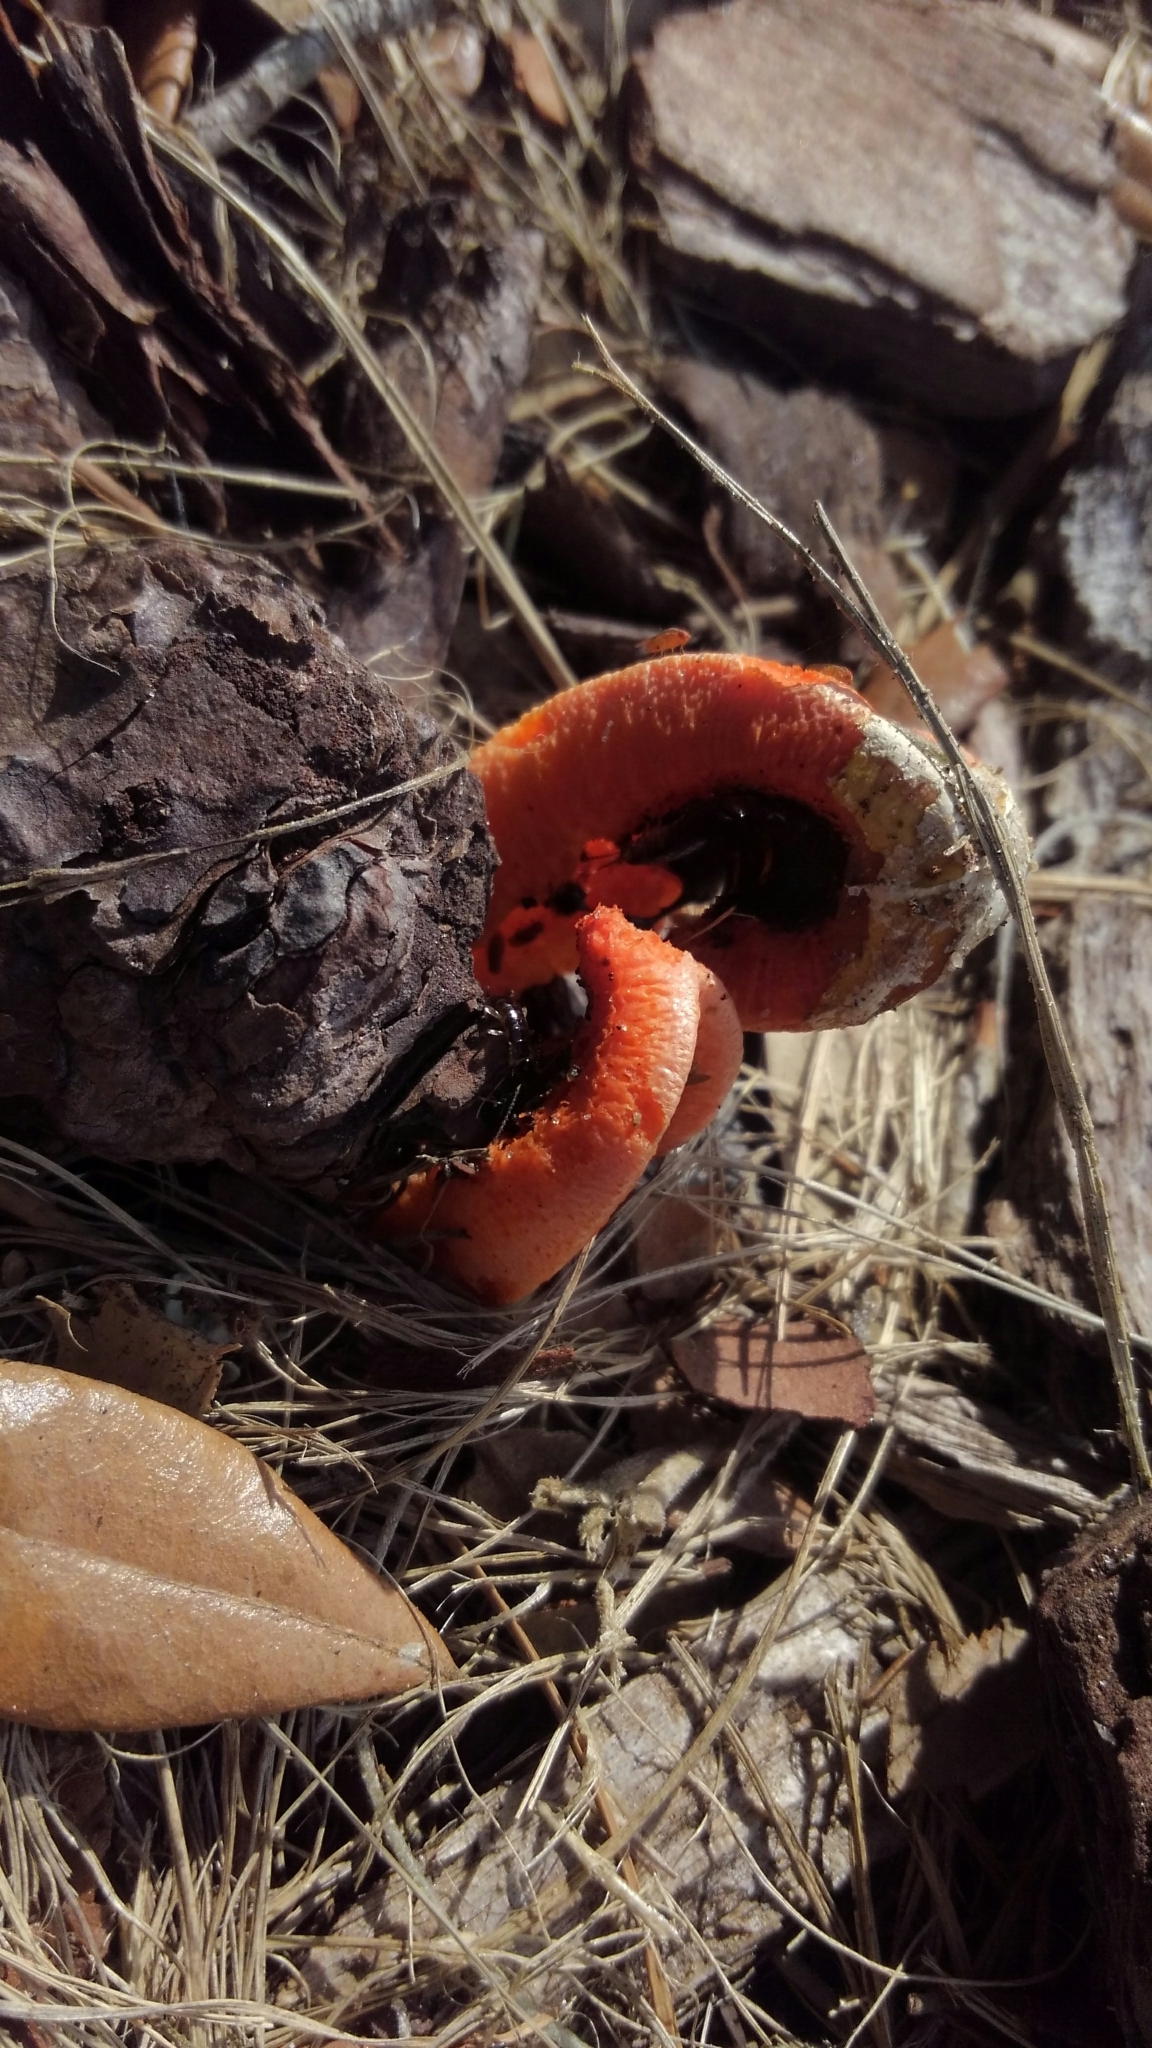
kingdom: Fungi
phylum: Basidiomycota
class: Agaricomycetes
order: Phallales
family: Phallaceae
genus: Clathrus
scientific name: Clathrus columnatus
